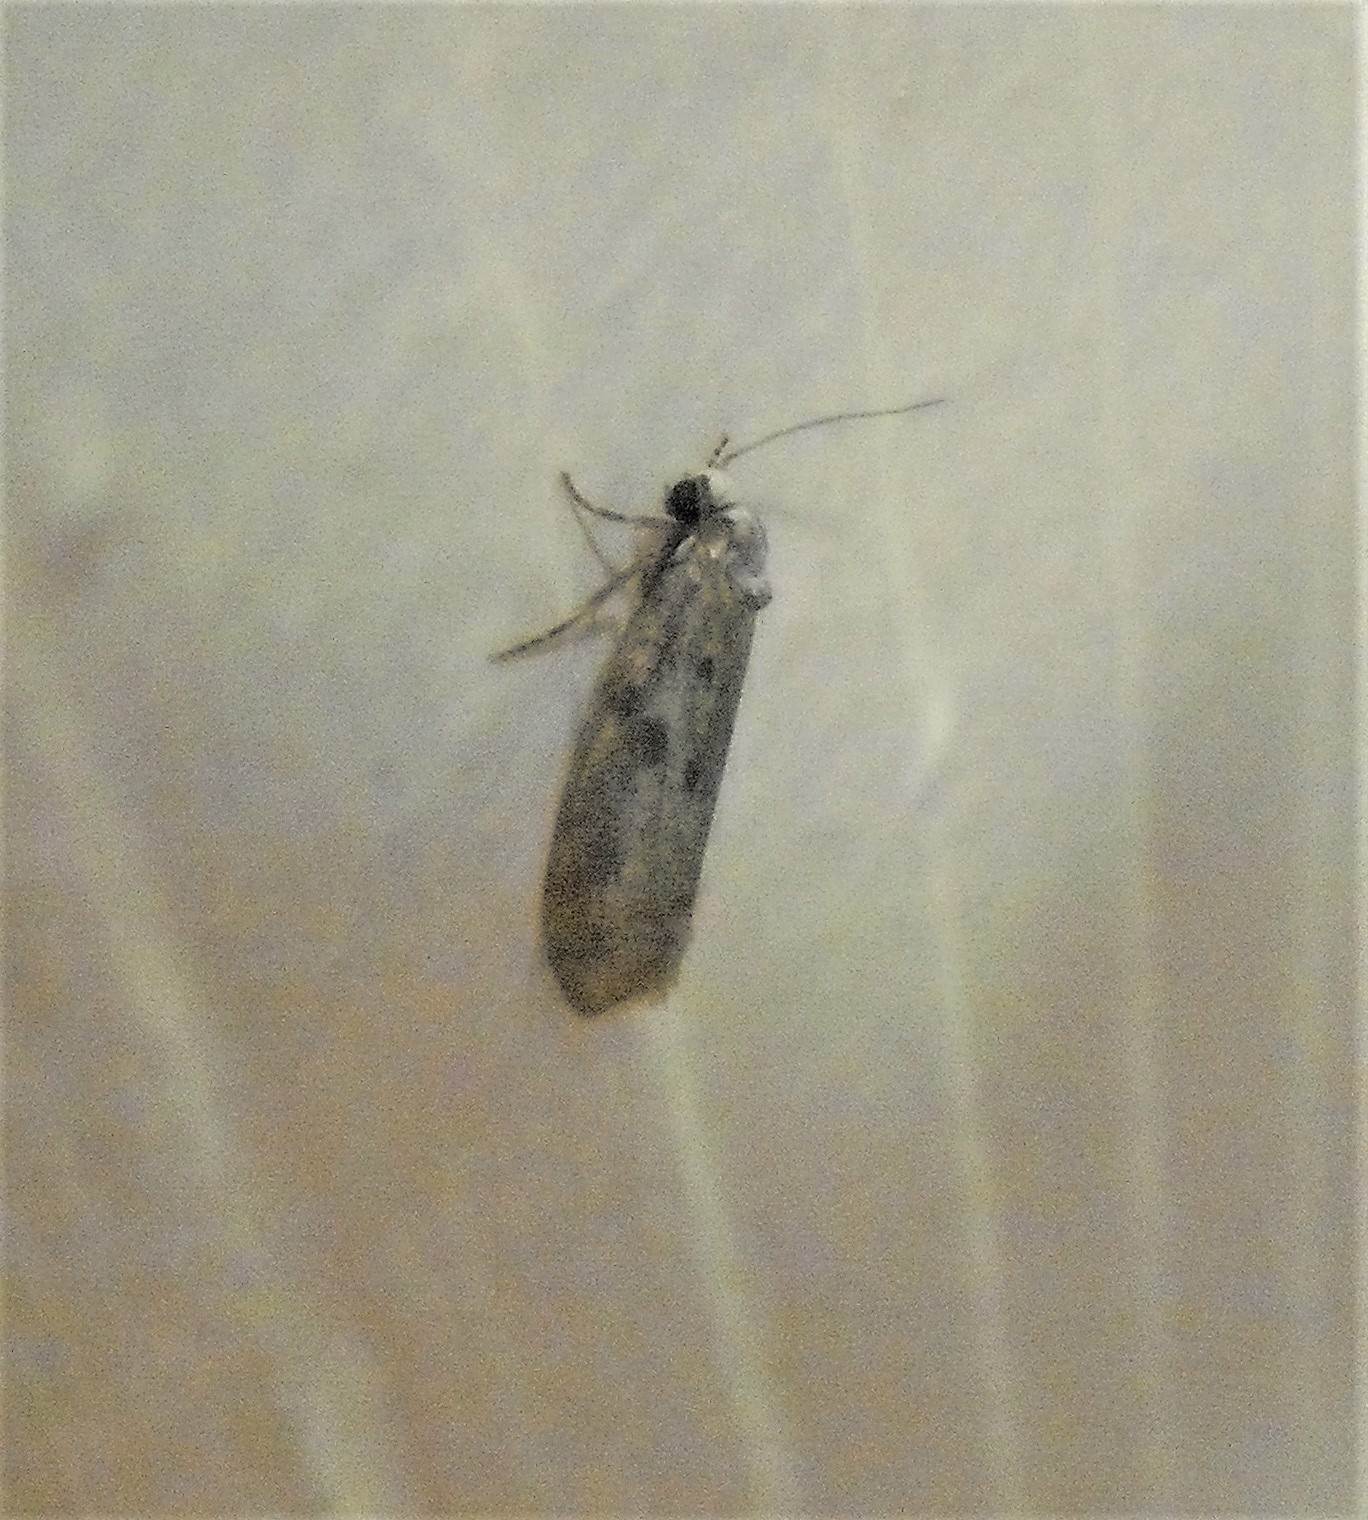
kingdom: Animalia
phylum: Arthropoda
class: Insecta
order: Lepidoptera
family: Psychidae
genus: Lepidoscia
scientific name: Lepidoscia protorna
